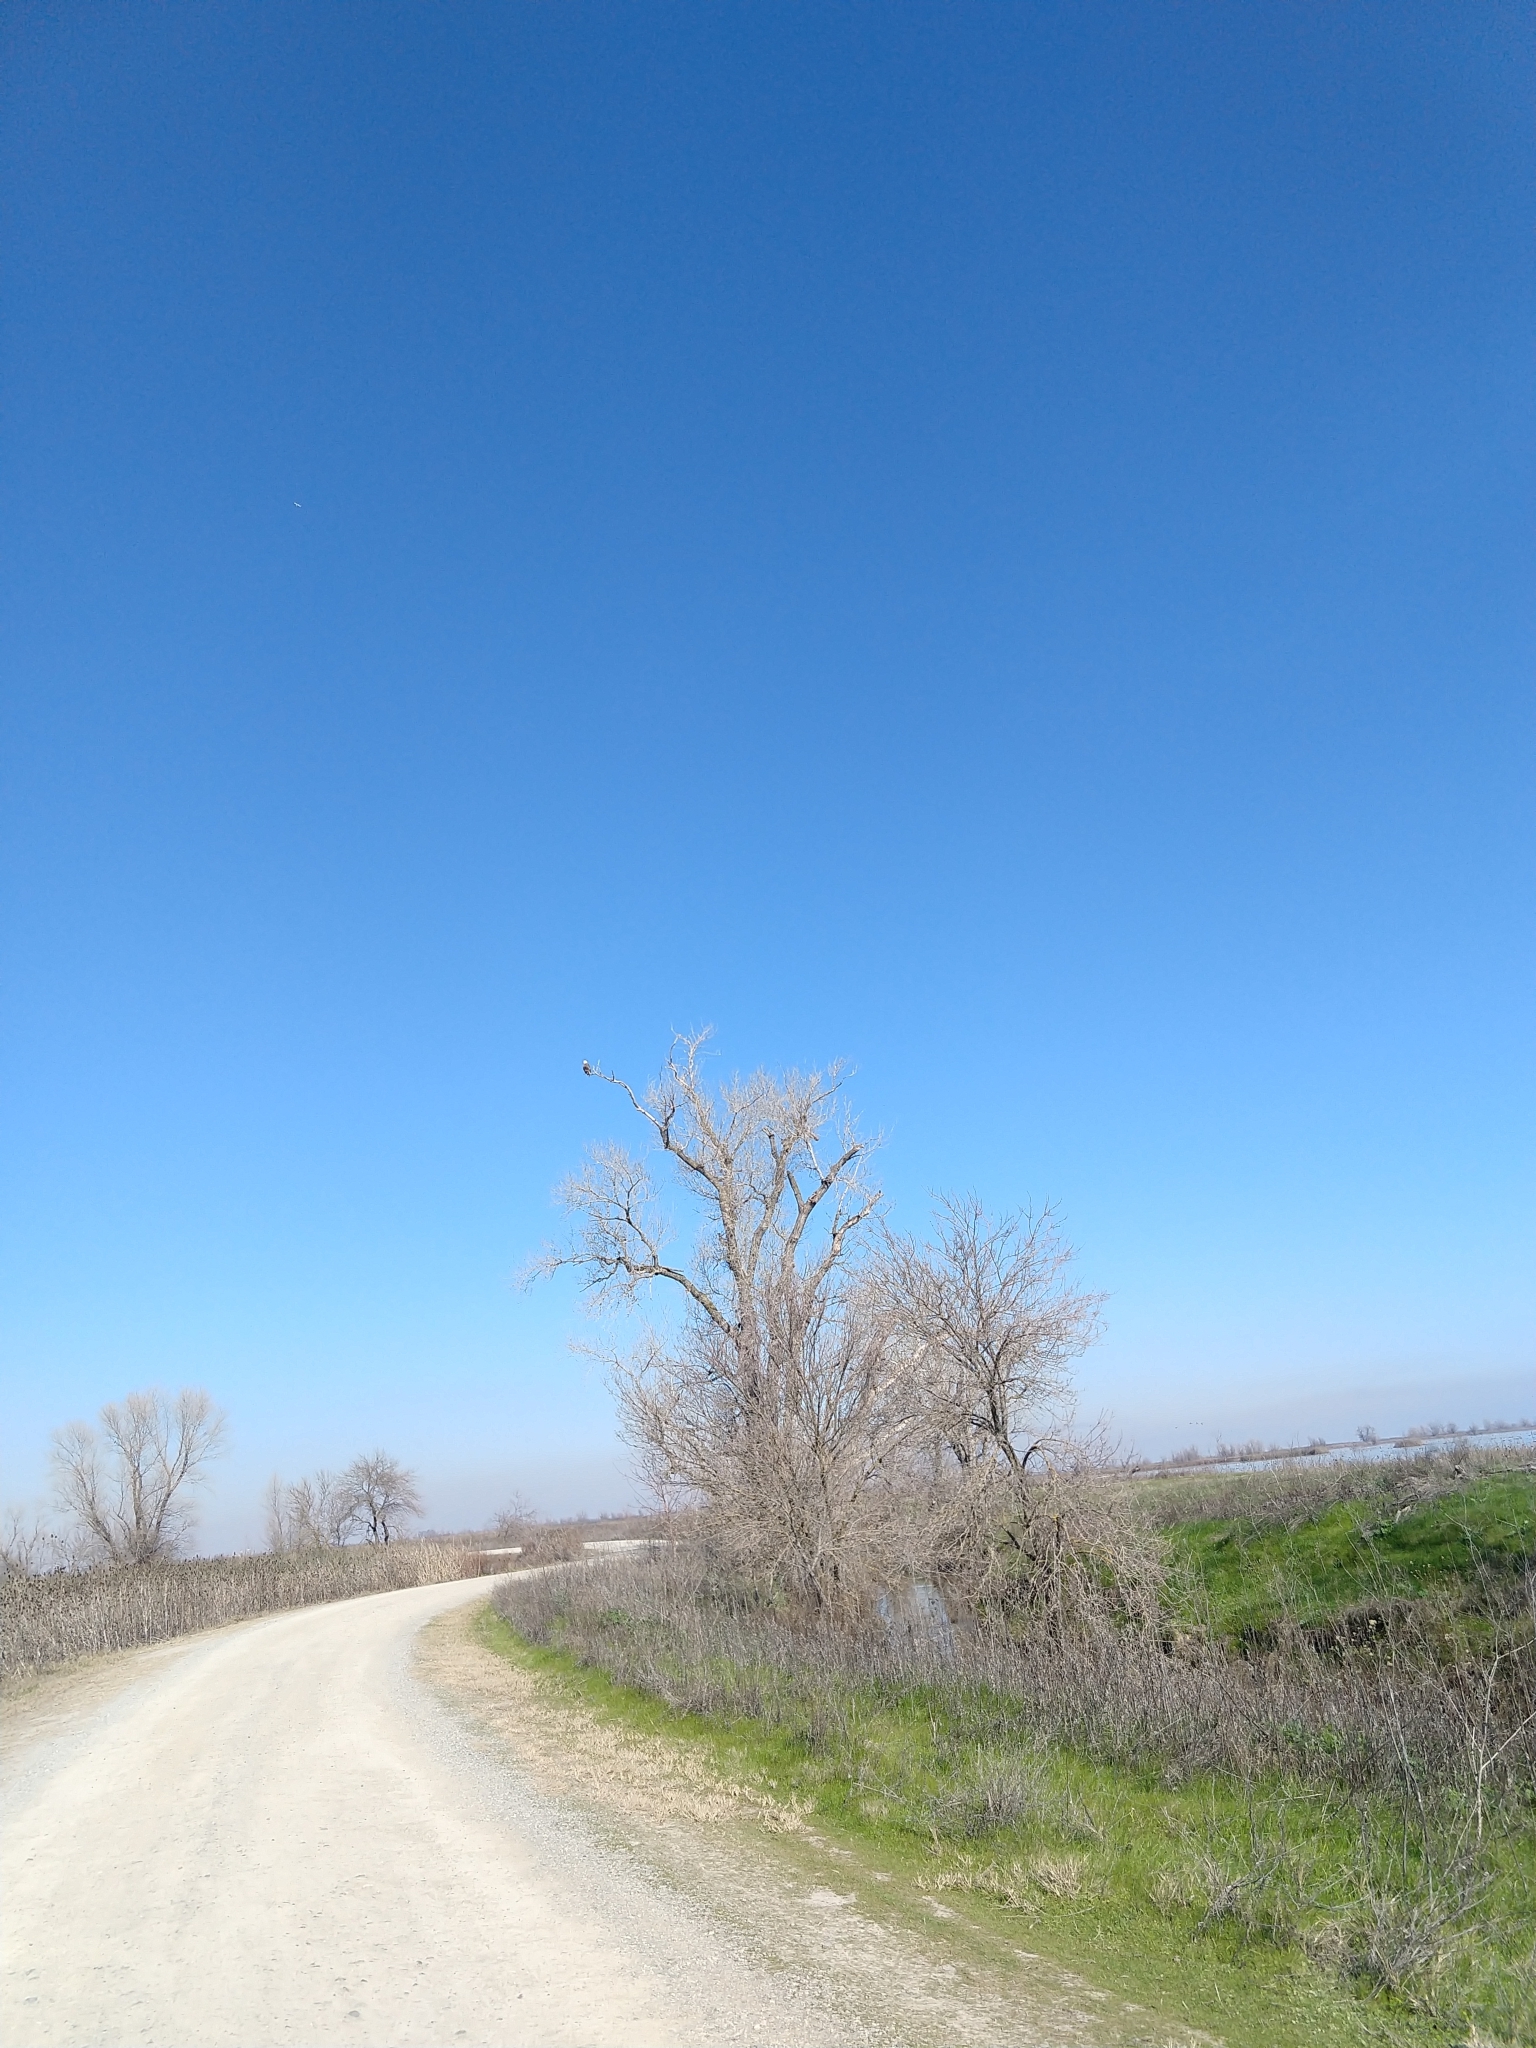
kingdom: Animalia
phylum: Chordata
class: Aves
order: Accipitriformes
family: Accipitridae
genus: Haliaeetus
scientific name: Haliaeetus leucocephalus
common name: Bald eagle
